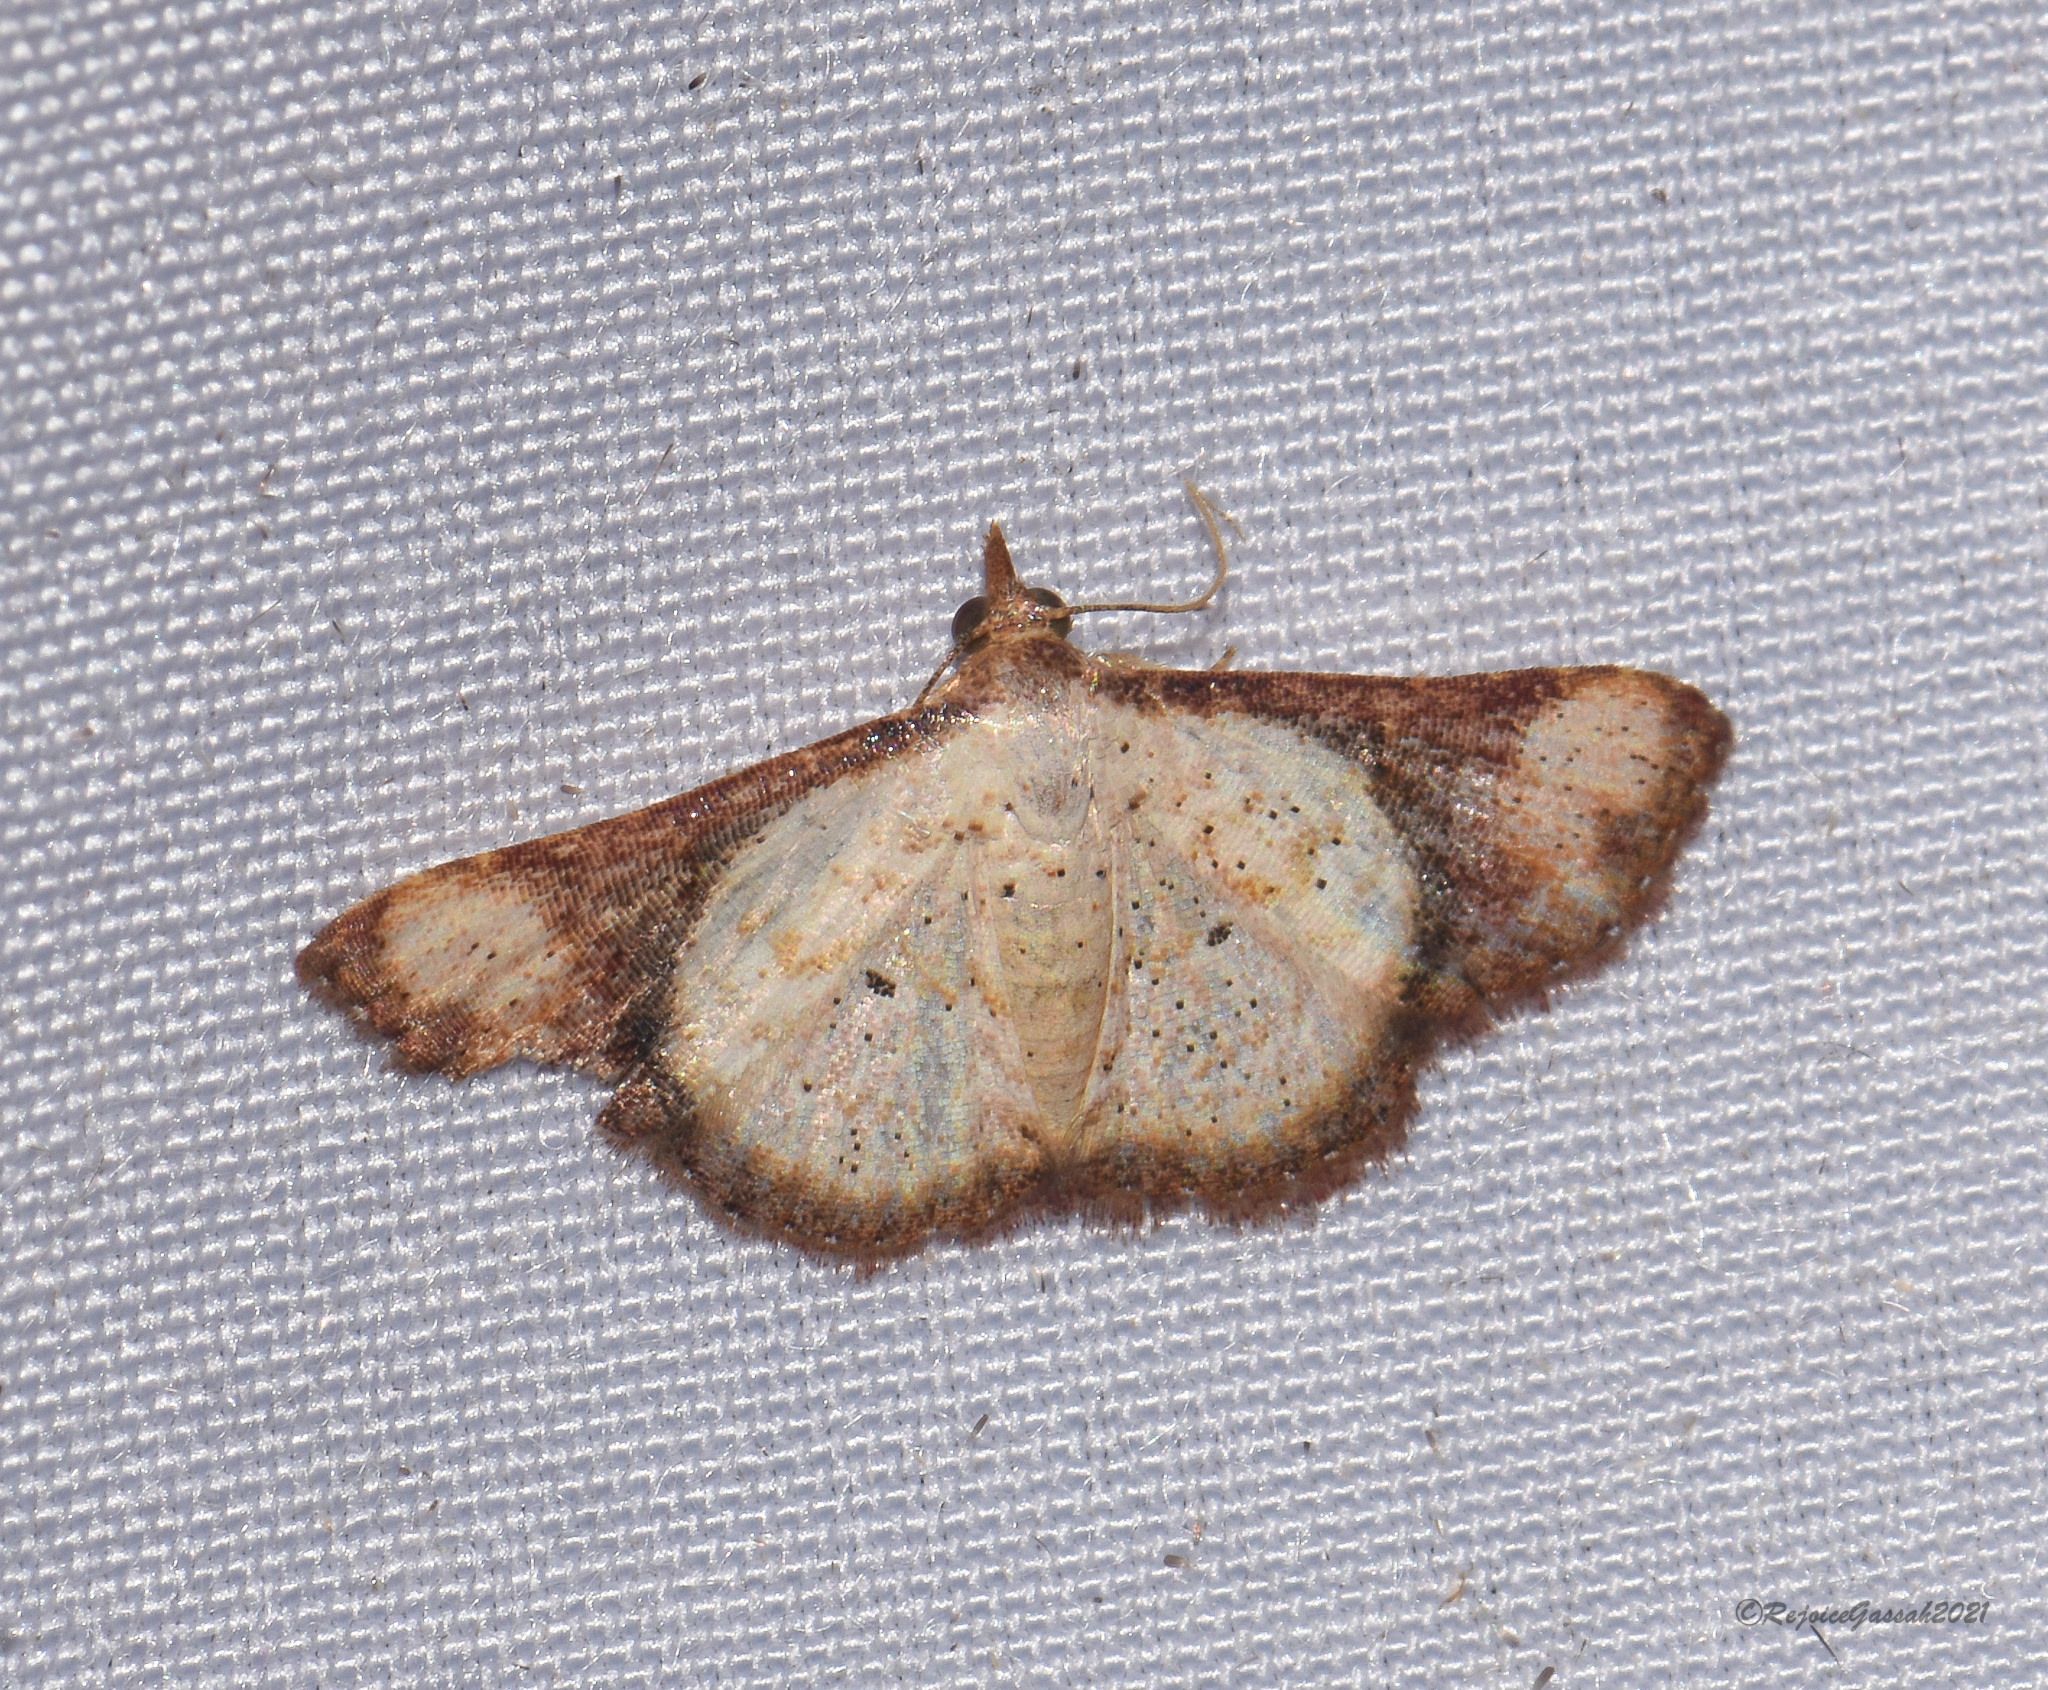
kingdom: Animalia
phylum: Arthropoda
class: Insecta
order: Lepidoptera
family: Erebidae
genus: Corgatha
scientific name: Corgatha atrimargo
